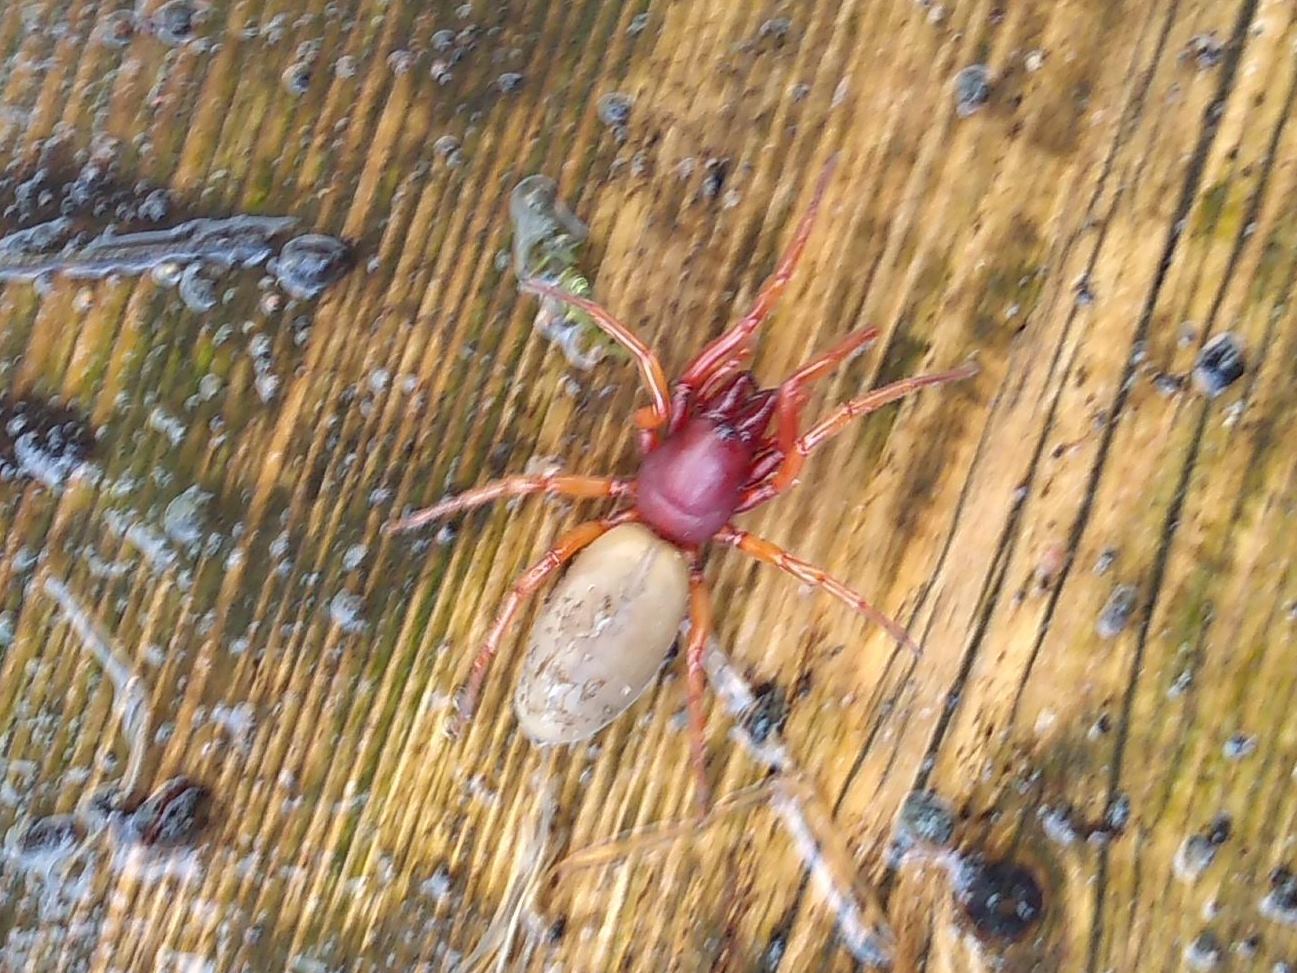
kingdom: Animalia
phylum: Arthropoda
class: Arachnida
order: Araneae
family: Dysderidae
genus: Dysdera
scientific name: Dysdera crocata
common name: Woodlouse spider
